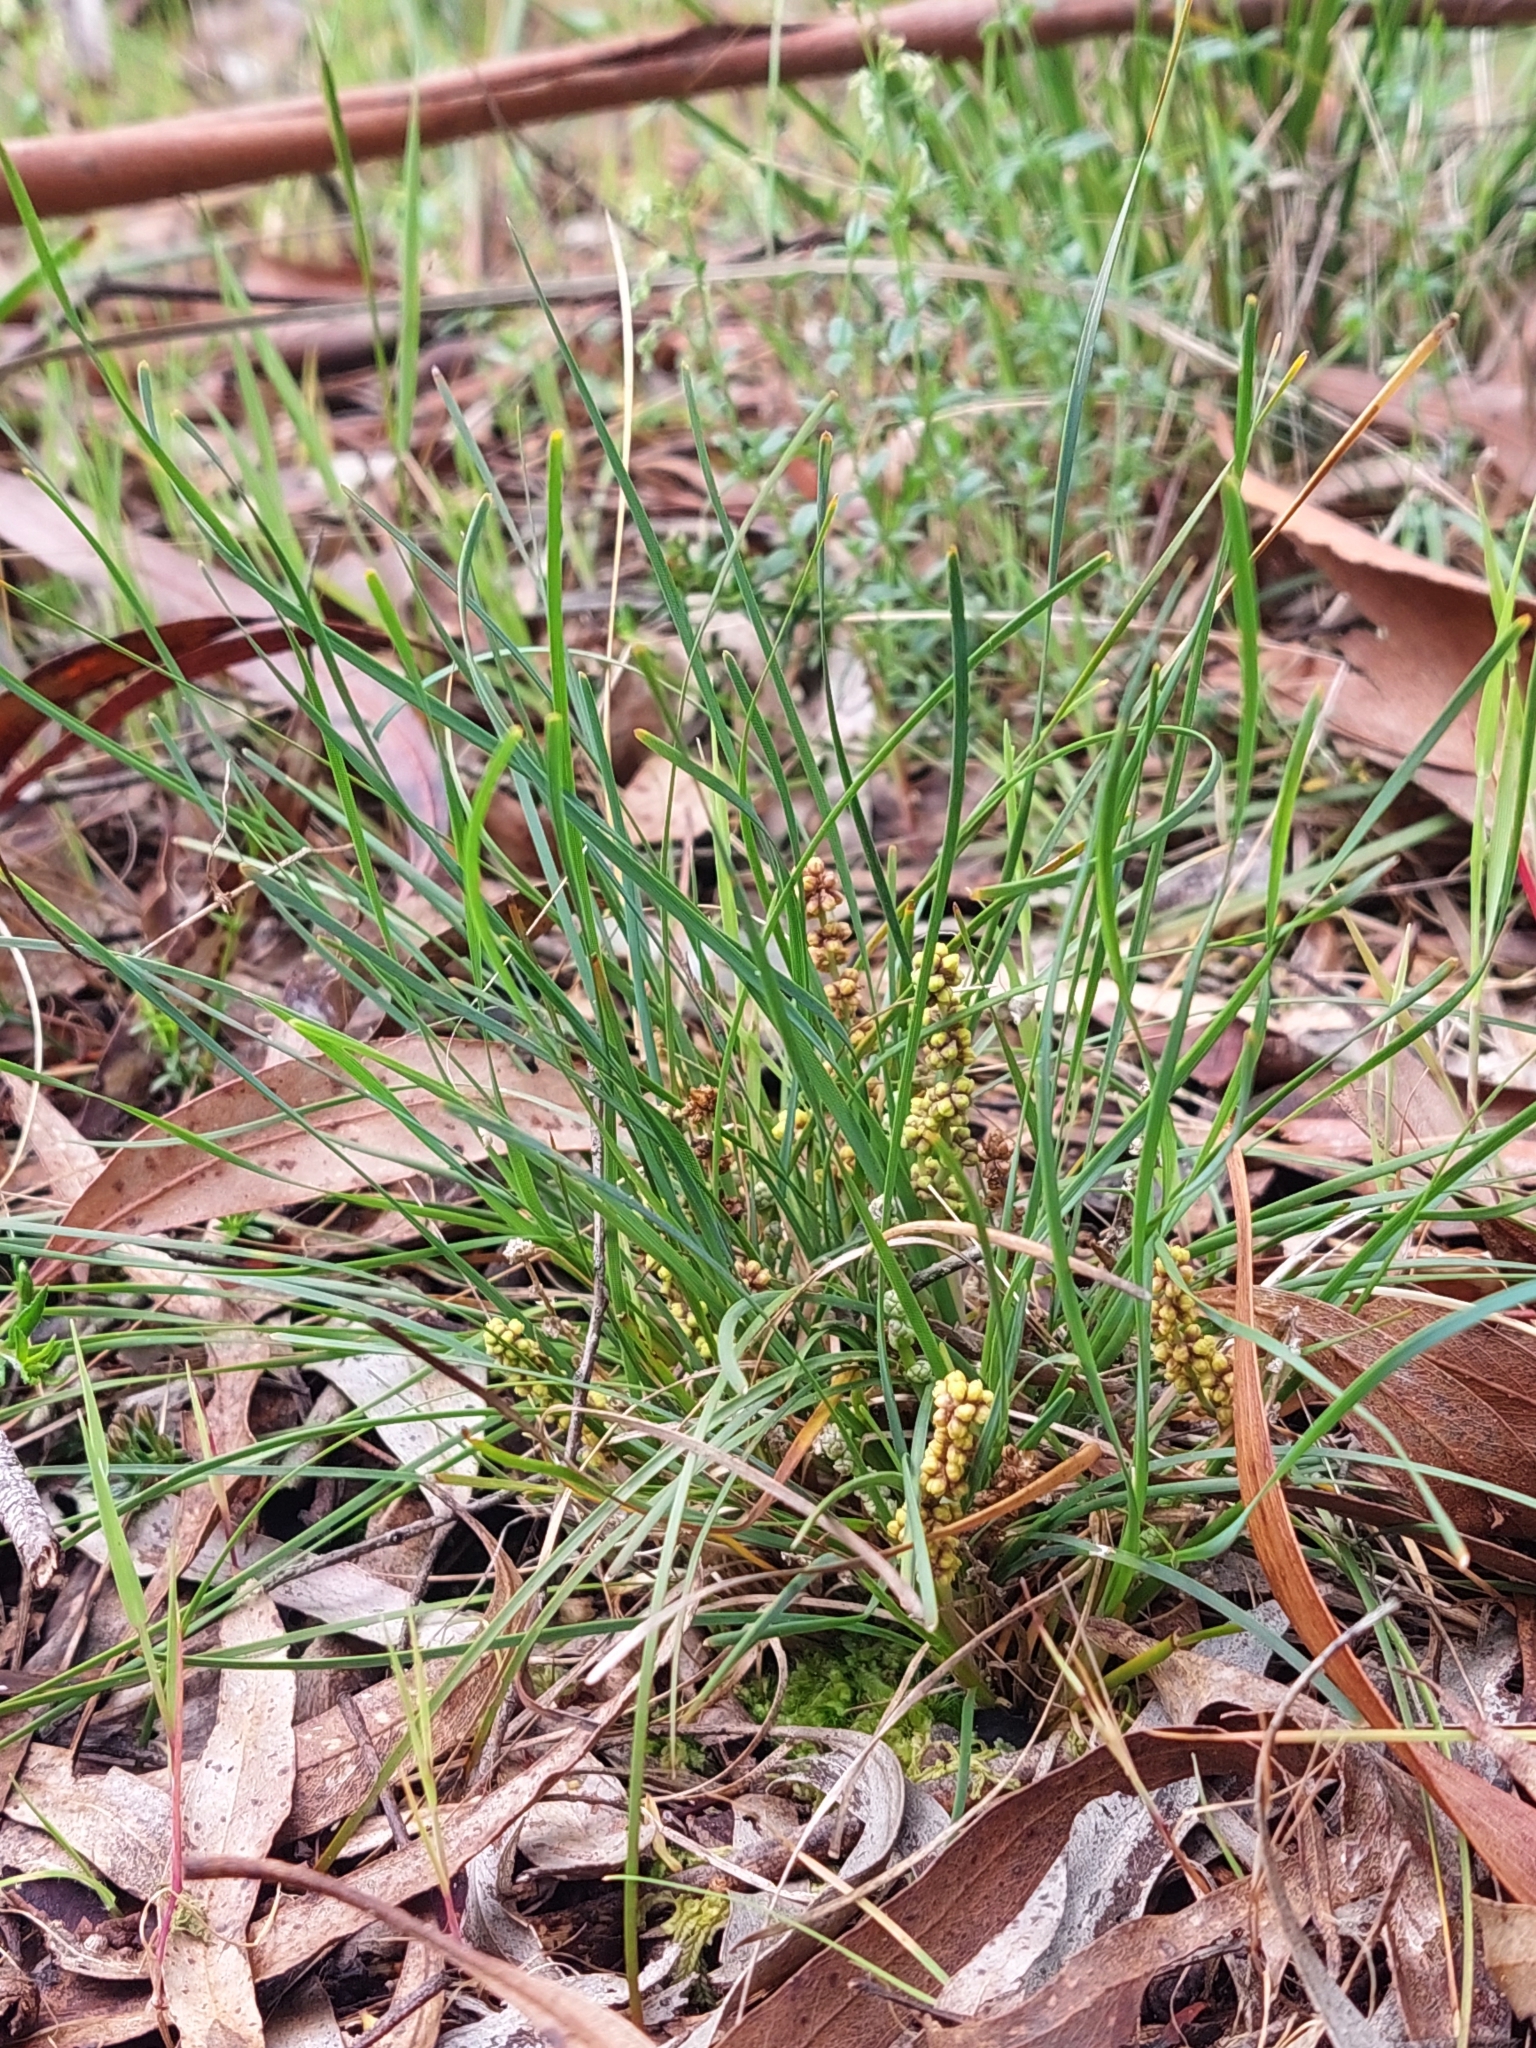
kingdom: Plantae
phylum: Tracheophyta
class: Liliopsida
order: Asparagales
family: Asparagaceae
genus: Lomandra
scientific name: Lomandra nana
